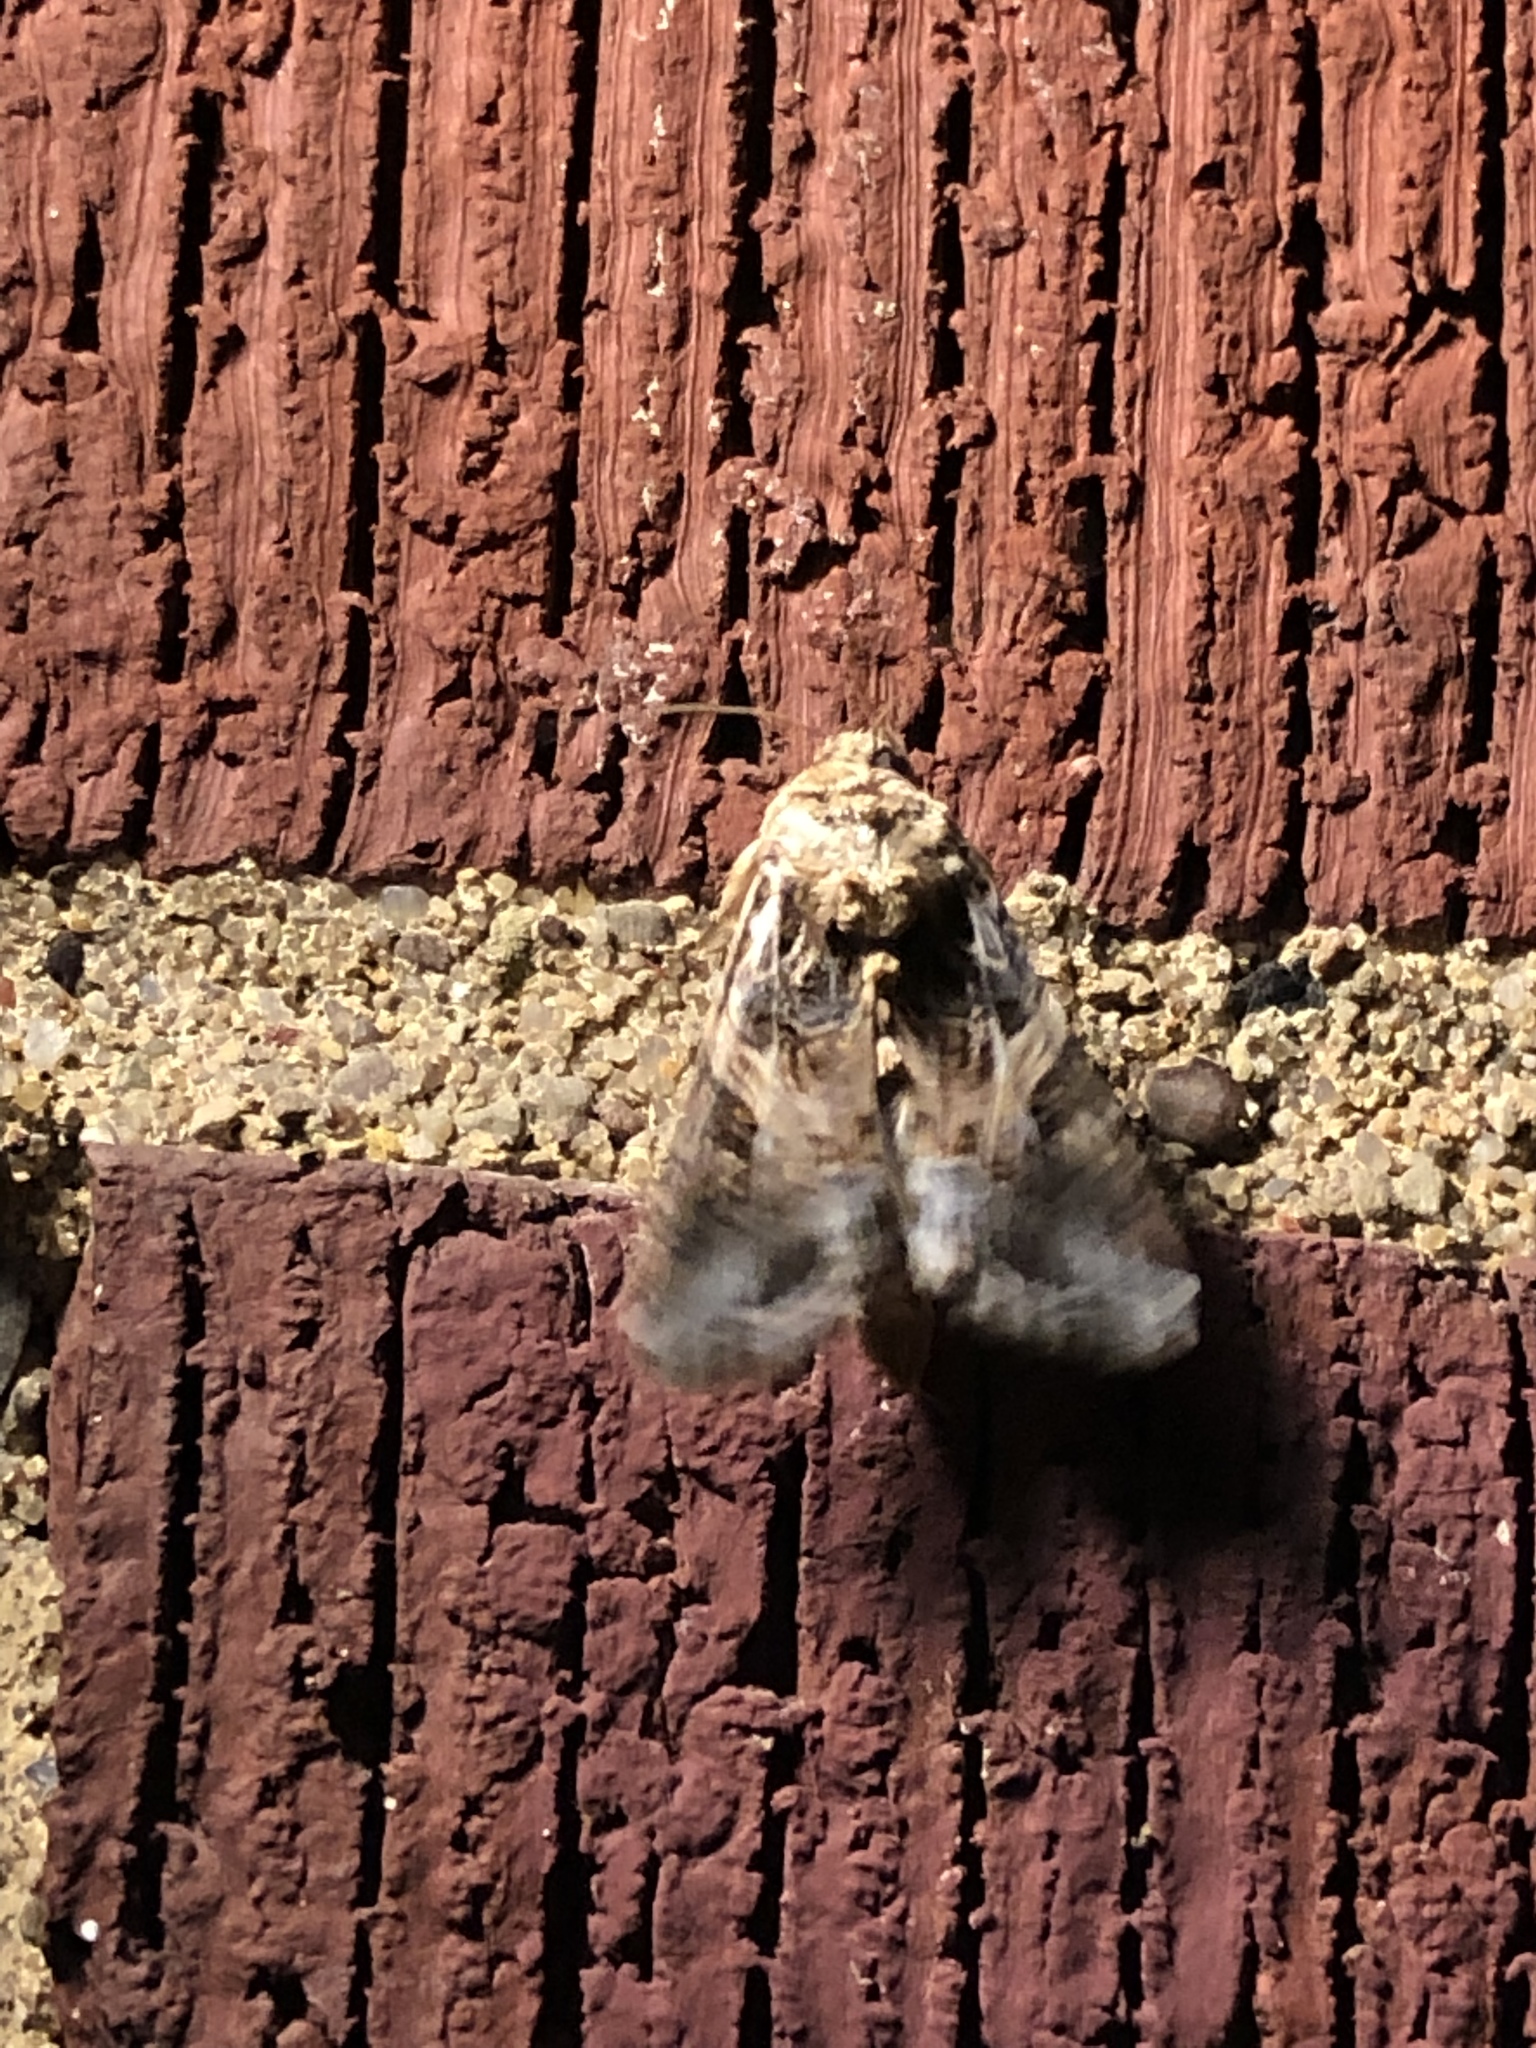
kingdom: Animalia
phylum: Arthropoda
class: Insecta
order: Lepidoptera
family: Noctuidae
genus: Spodoptera
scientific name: Spodoptera ornithogalli
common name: Yellow-striped armyworm
